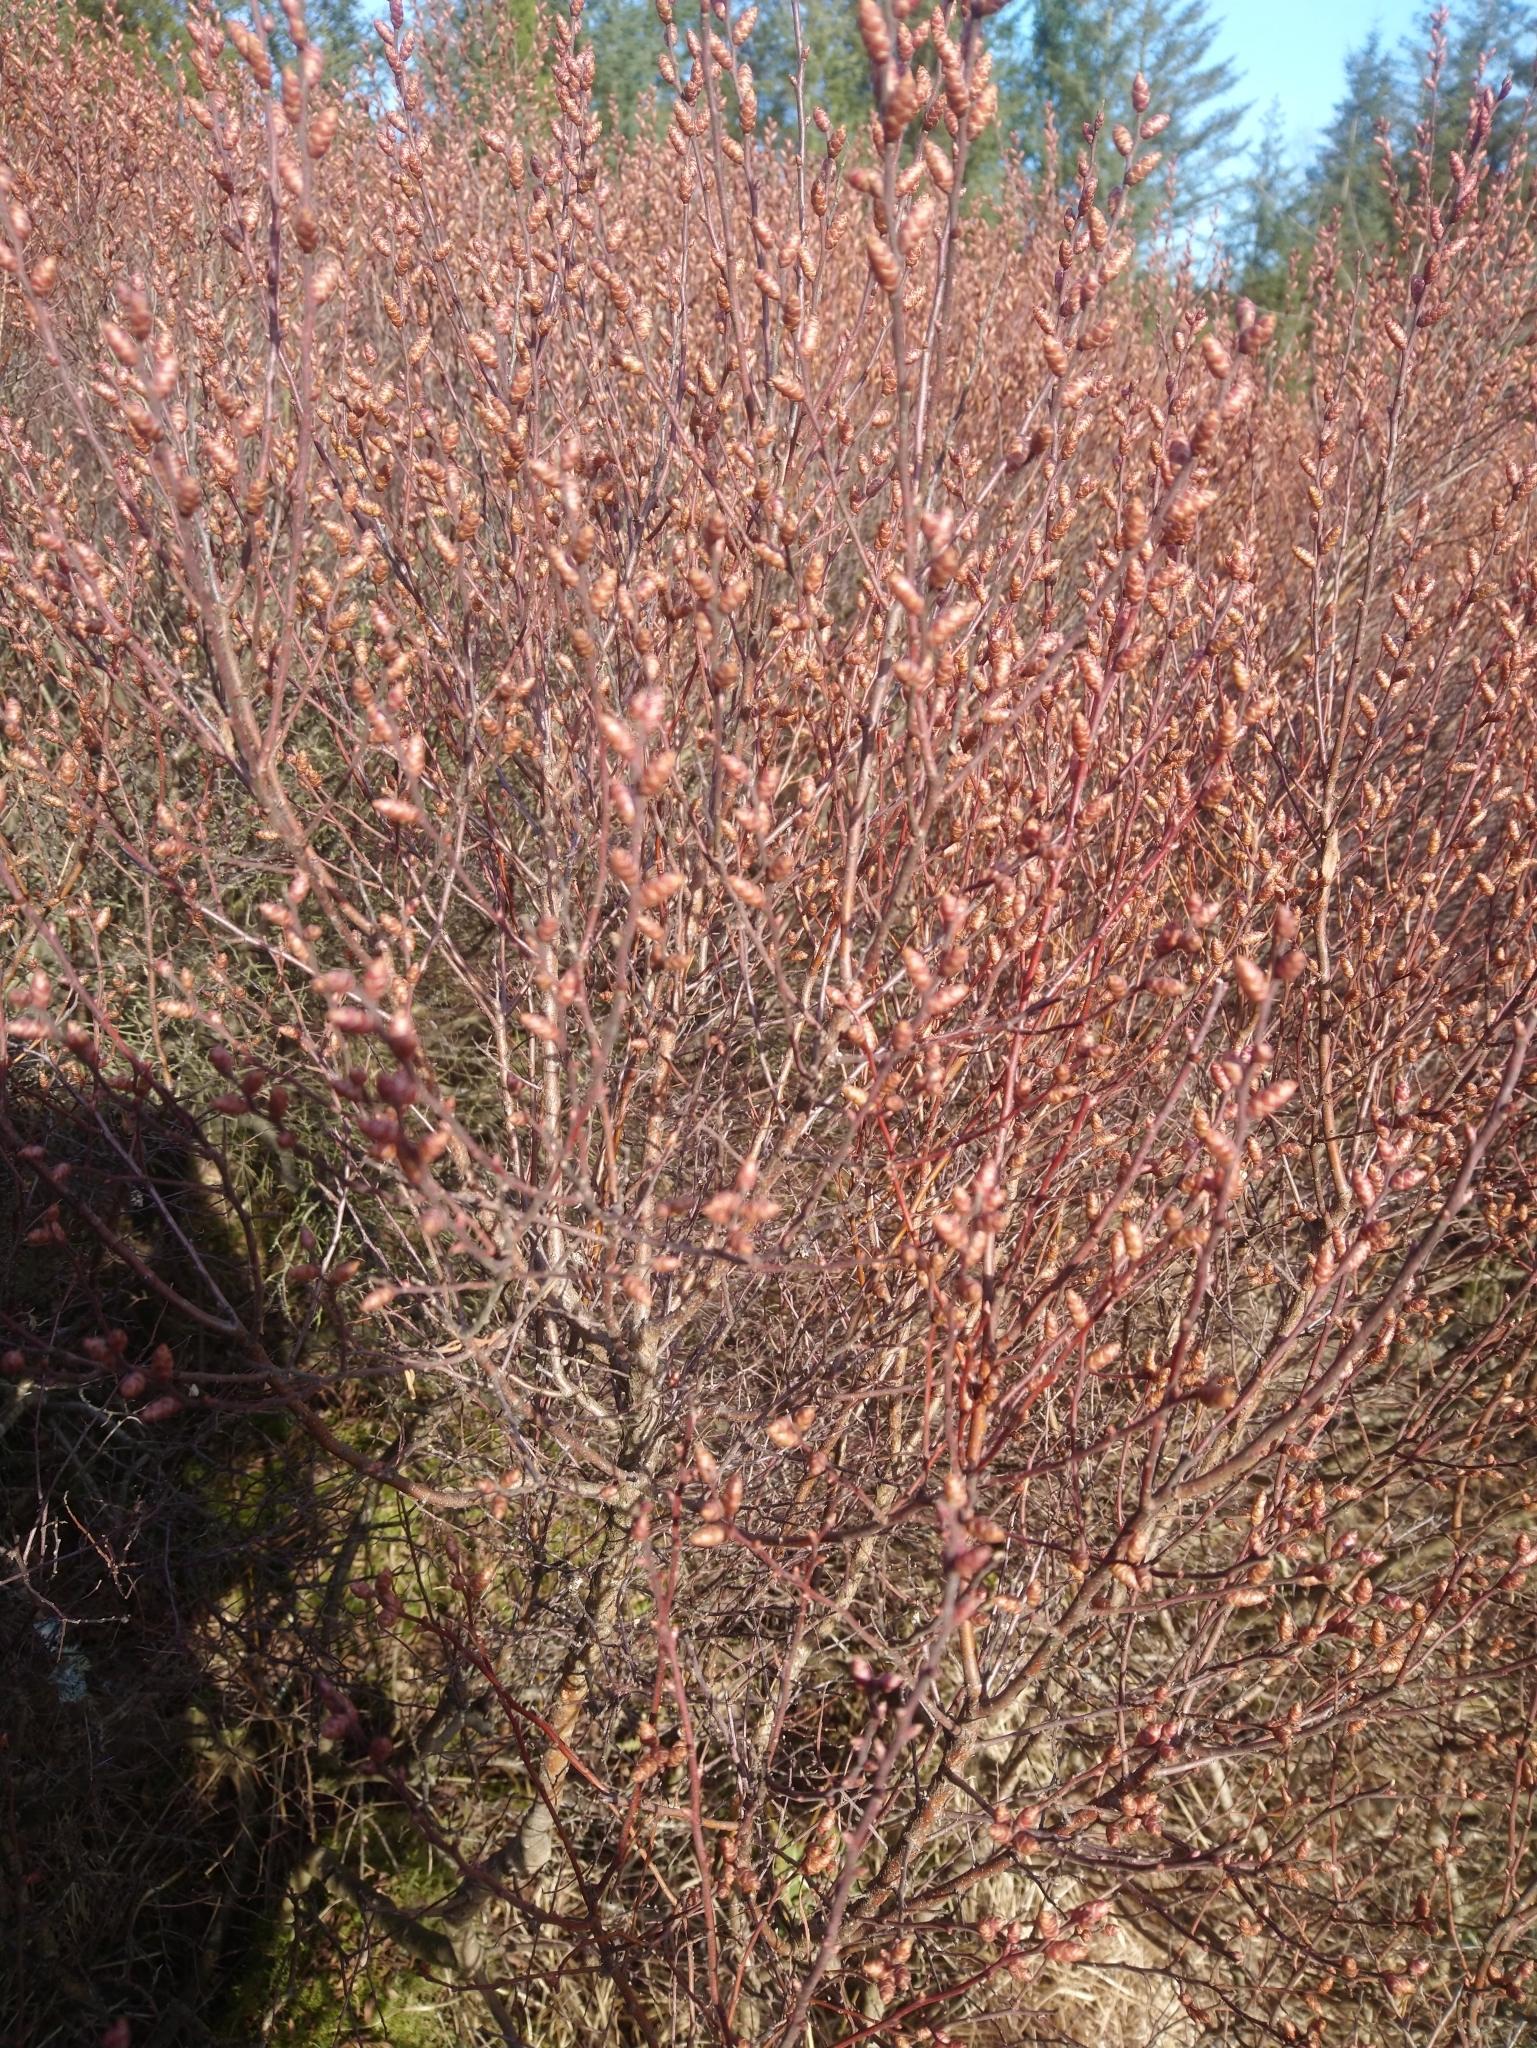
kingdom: Plantae
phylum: Tracheophyta
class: Magnoliopsida
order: Fagales
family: Myricaceae
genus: Myrica
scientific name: Myrica gale
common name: Sweet gale
